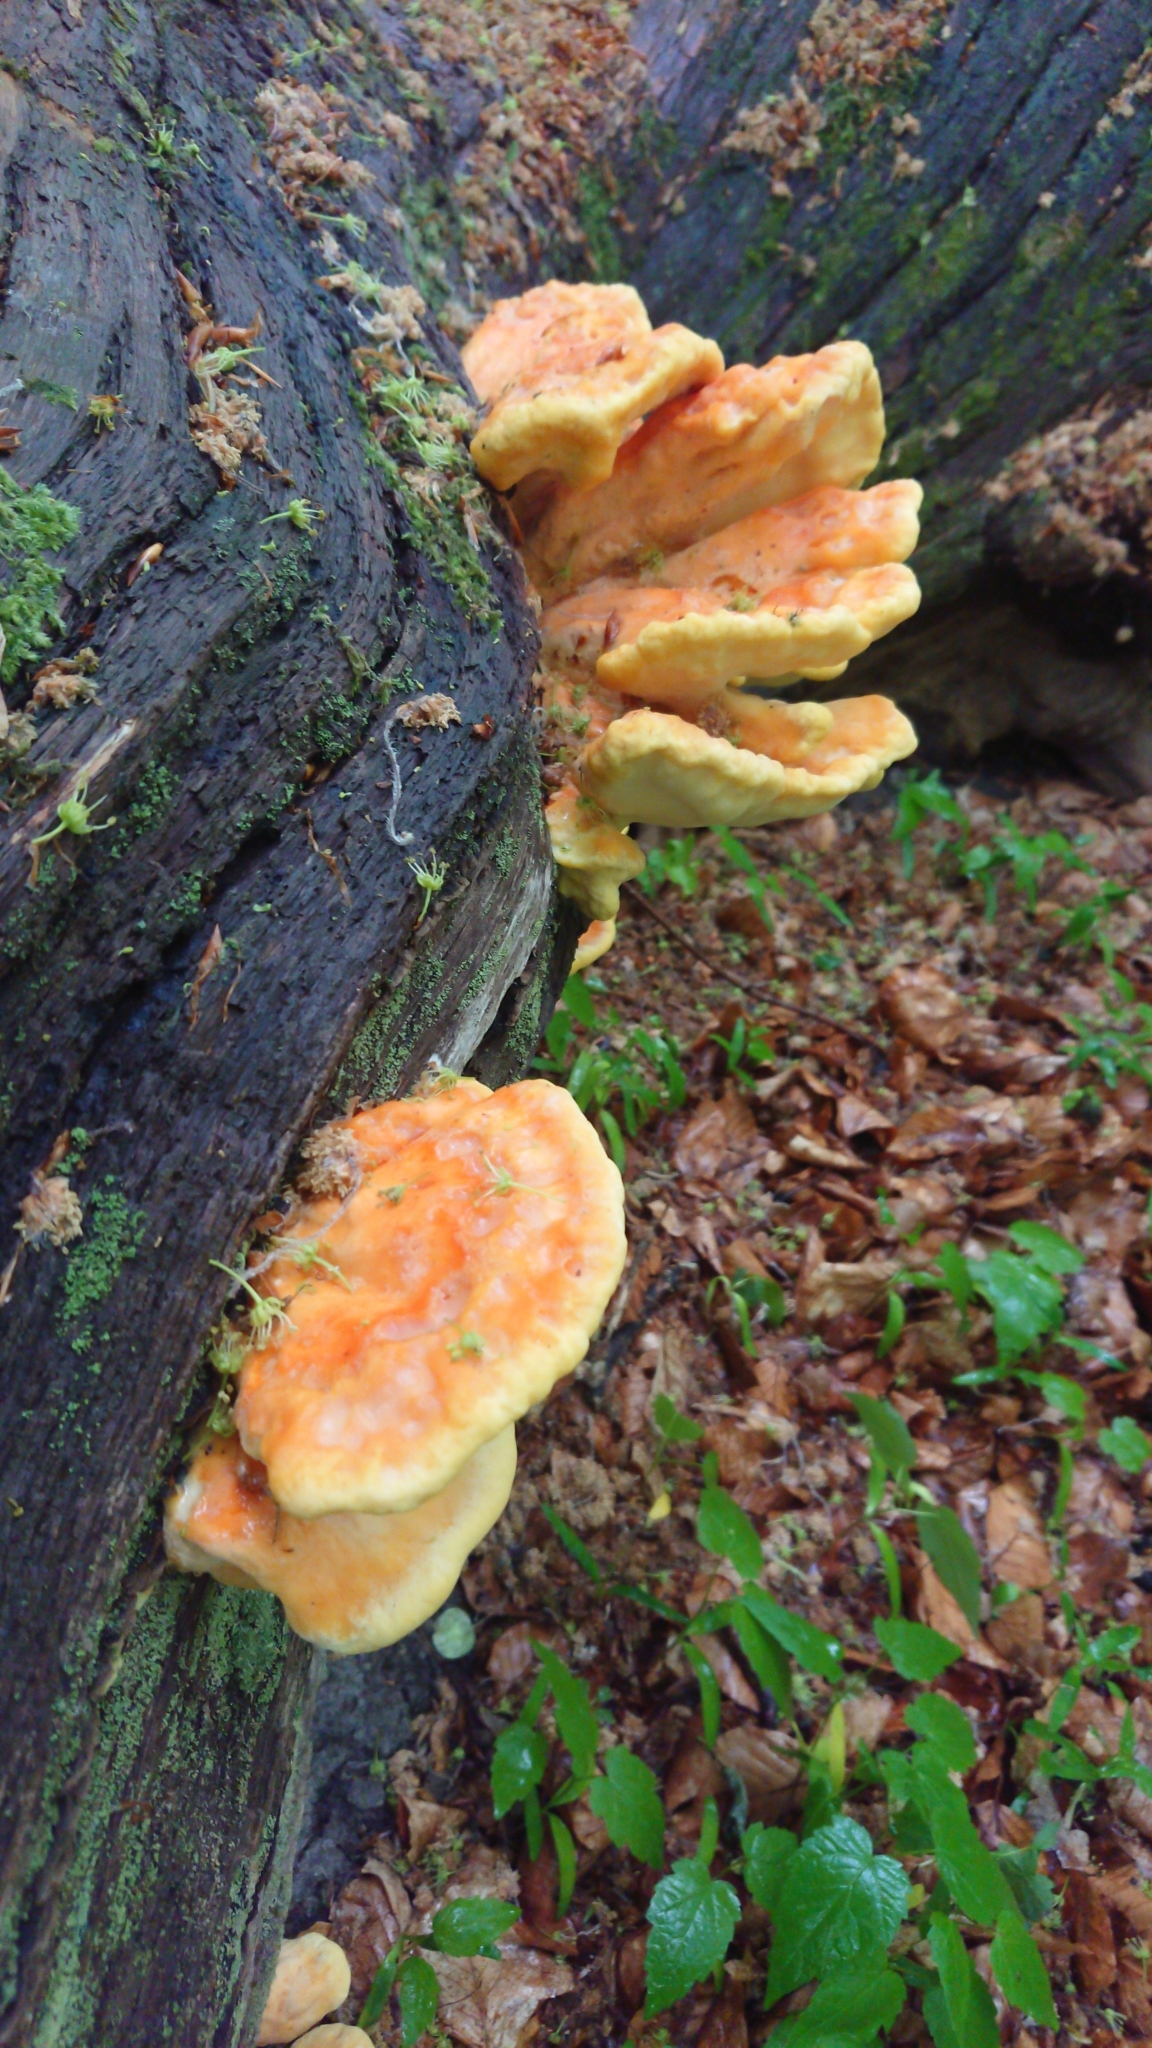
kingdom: Fungi
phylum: Basidiomycota
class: Agaricomycetes
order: Polyporales
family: Laetiporaceae
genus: Laetiporus
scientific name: Laetiporus sulphureus
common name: Chicken of the woods
